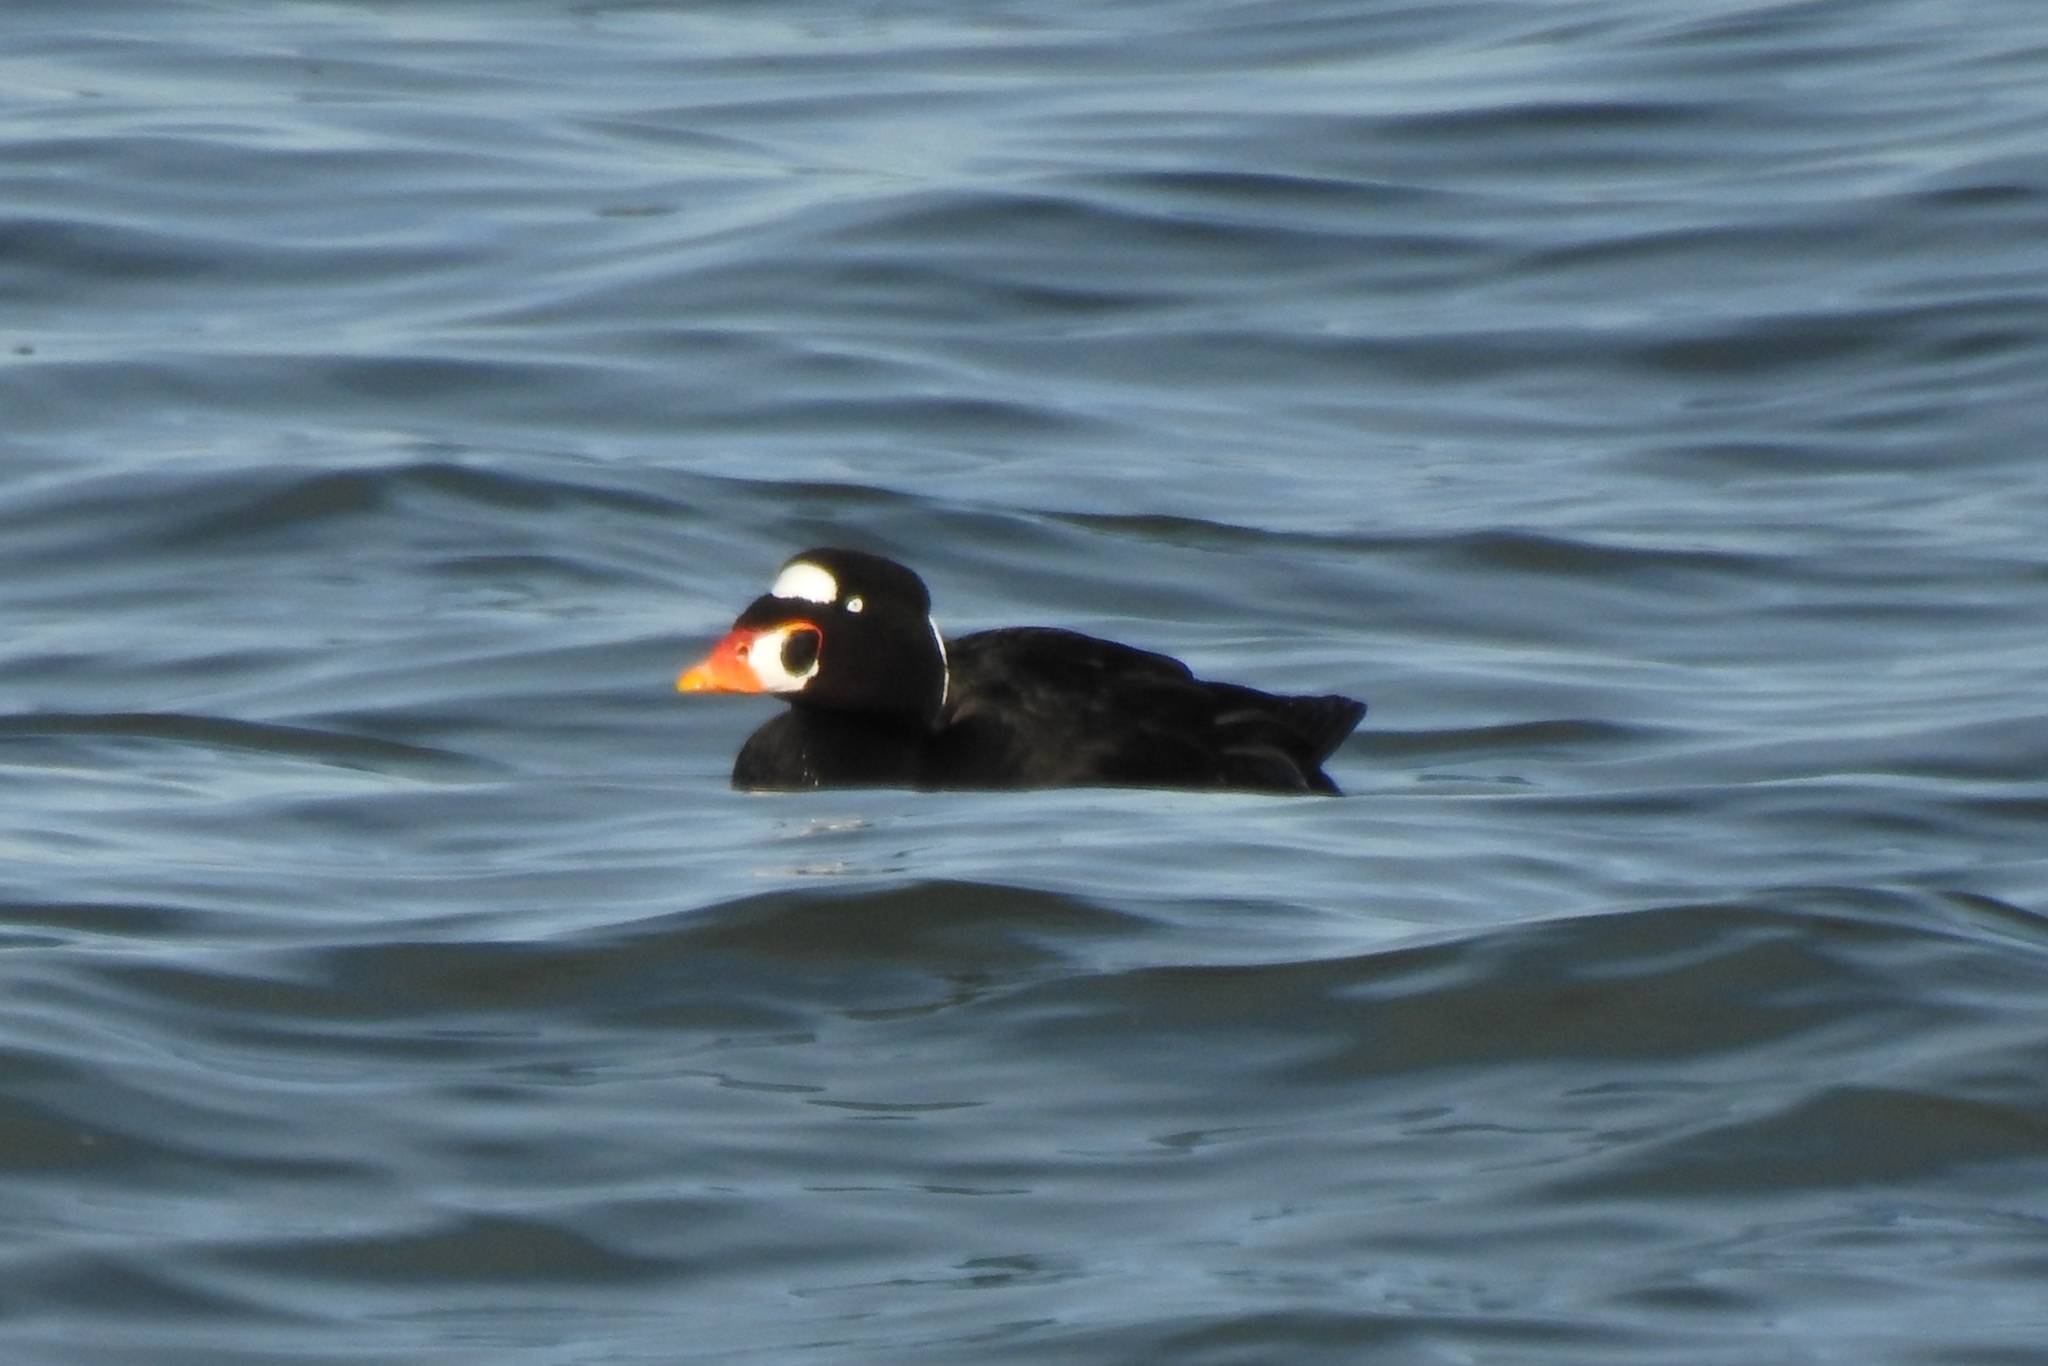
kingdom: Animalia
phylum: Chordata
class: Aves
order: Anseriformes
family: Anatidae
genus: Melanitta
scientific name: Melanitta perspicillata
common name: Surf scoter
